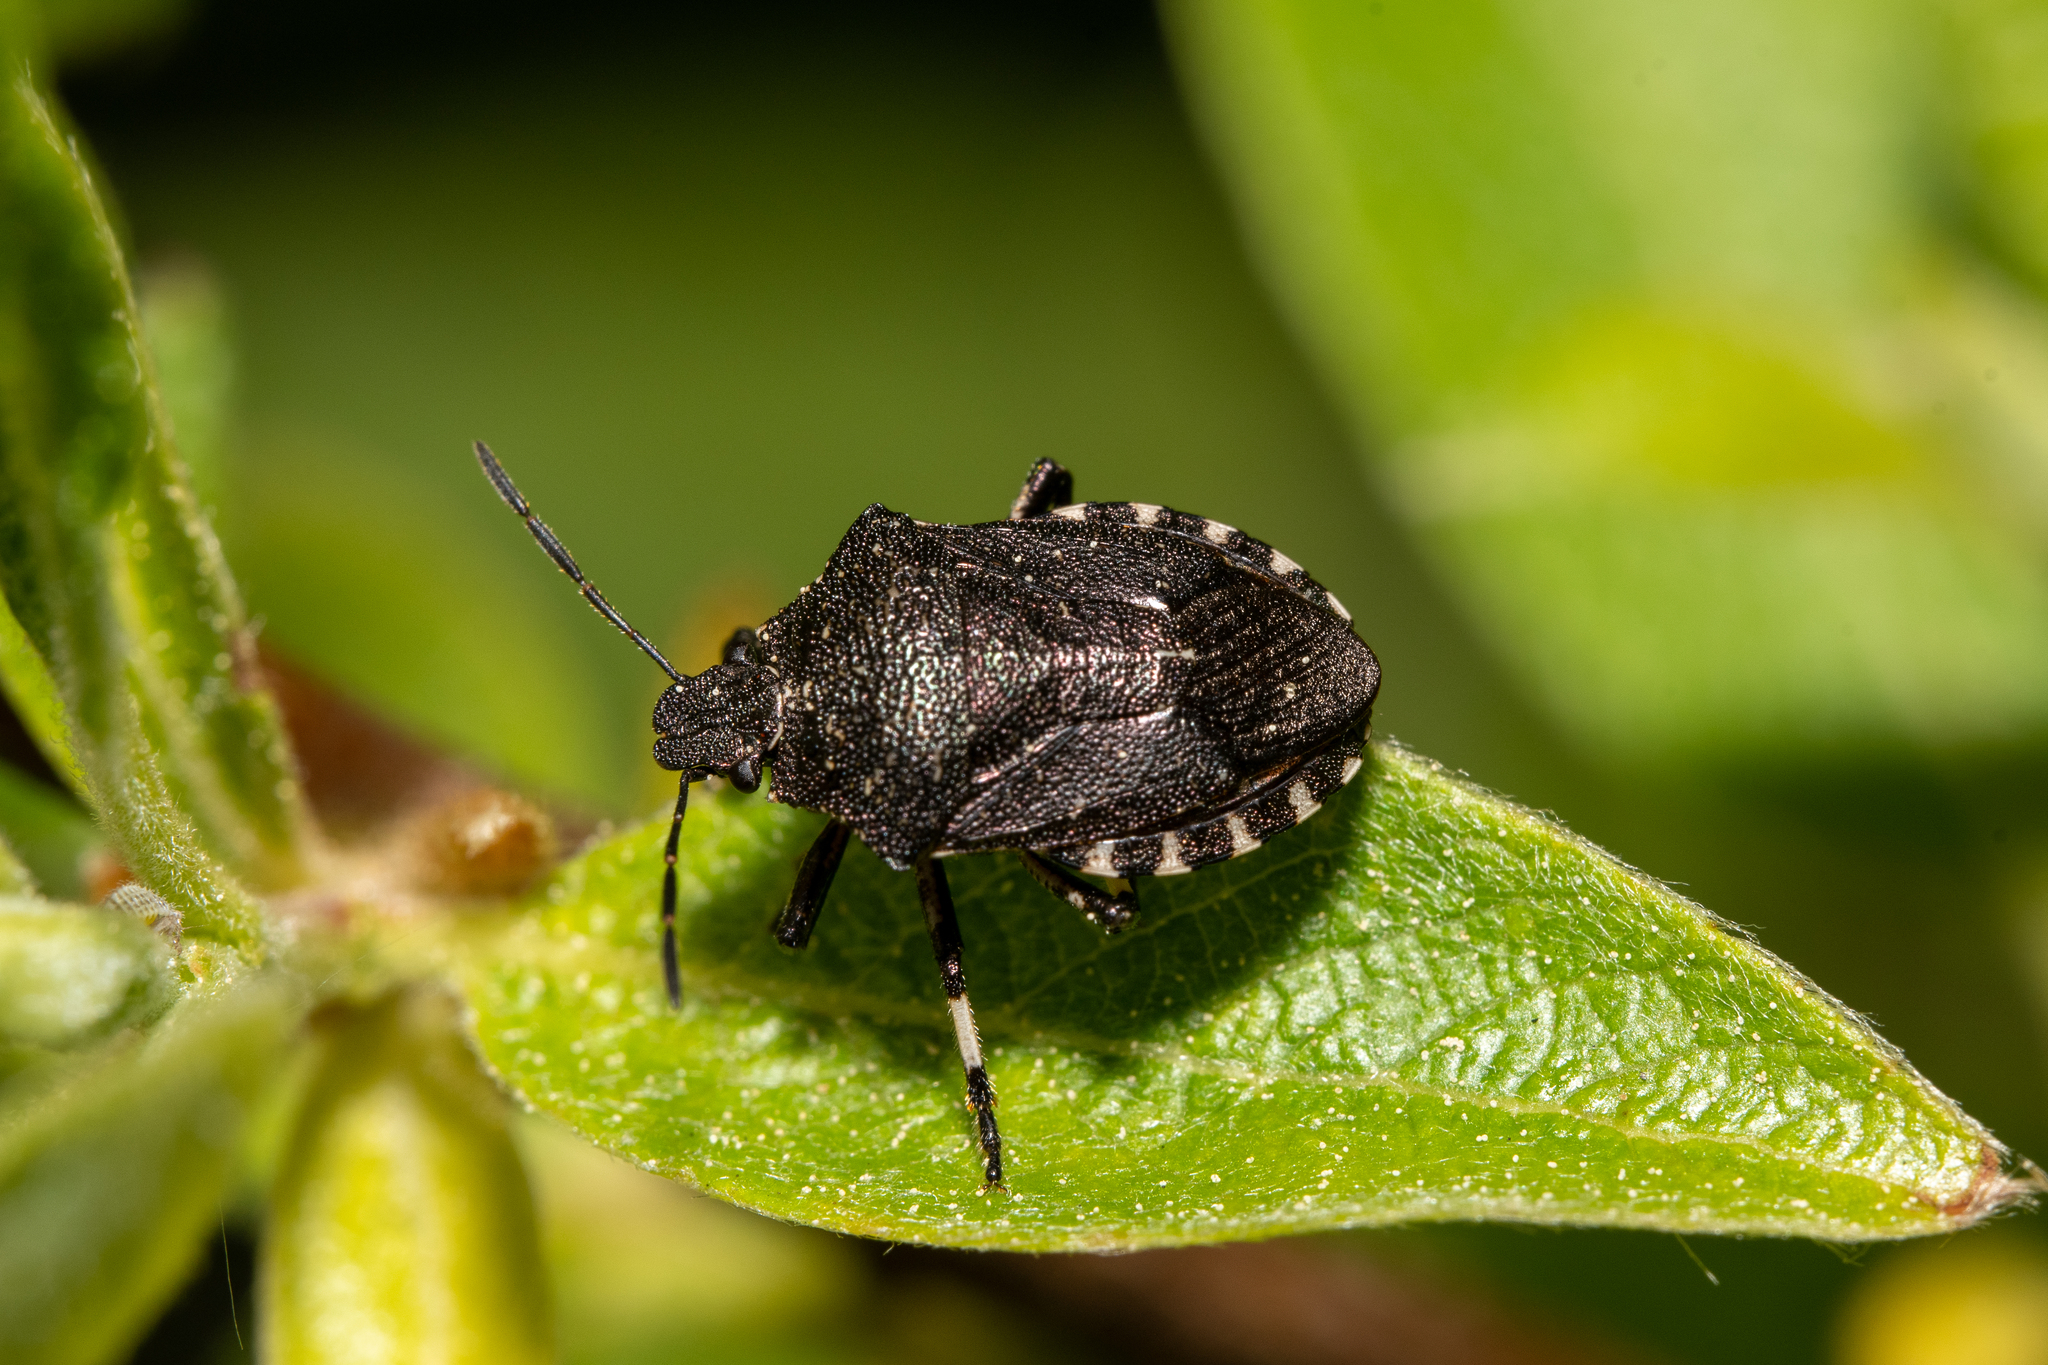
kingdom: Animalia
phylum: Arthropoda
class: Insecta
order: Hemiptera
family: Pentatomidae
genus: Rhacognathus
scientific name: Rhacognathus punctatus
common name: Heather bug
